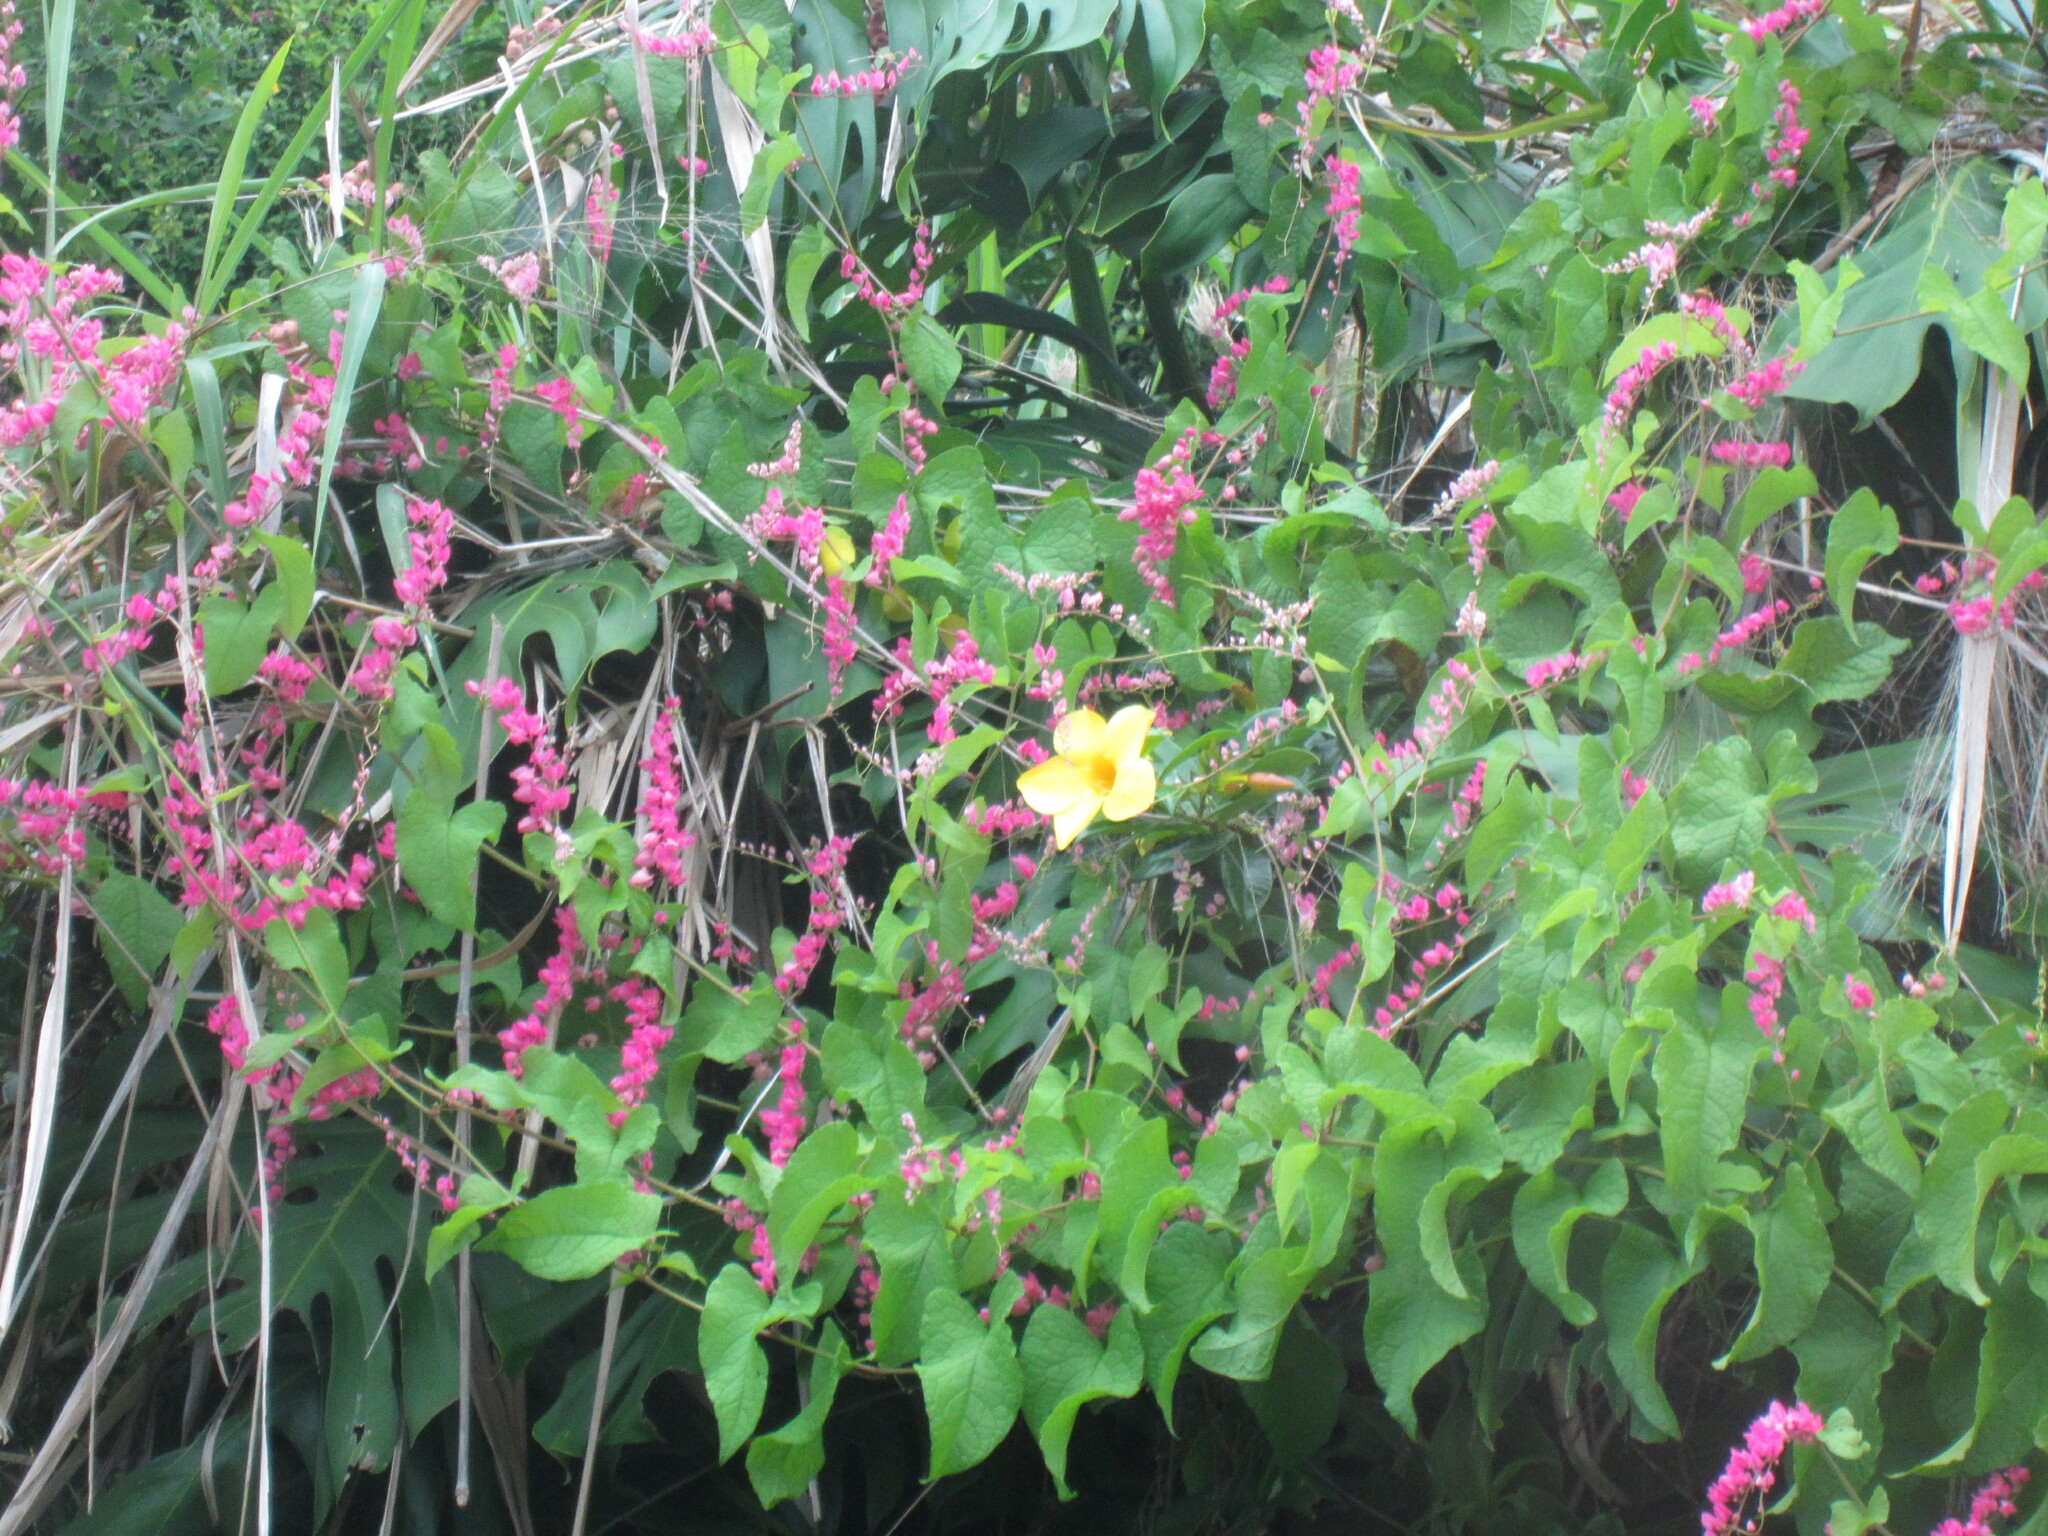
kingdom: Plantae
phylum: Tracheophyta
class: Magnoliopsida
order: Gentianales
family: Apocynaceae
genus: Allamanda
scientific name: Allamanda cathartica
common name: Golden trumpet
